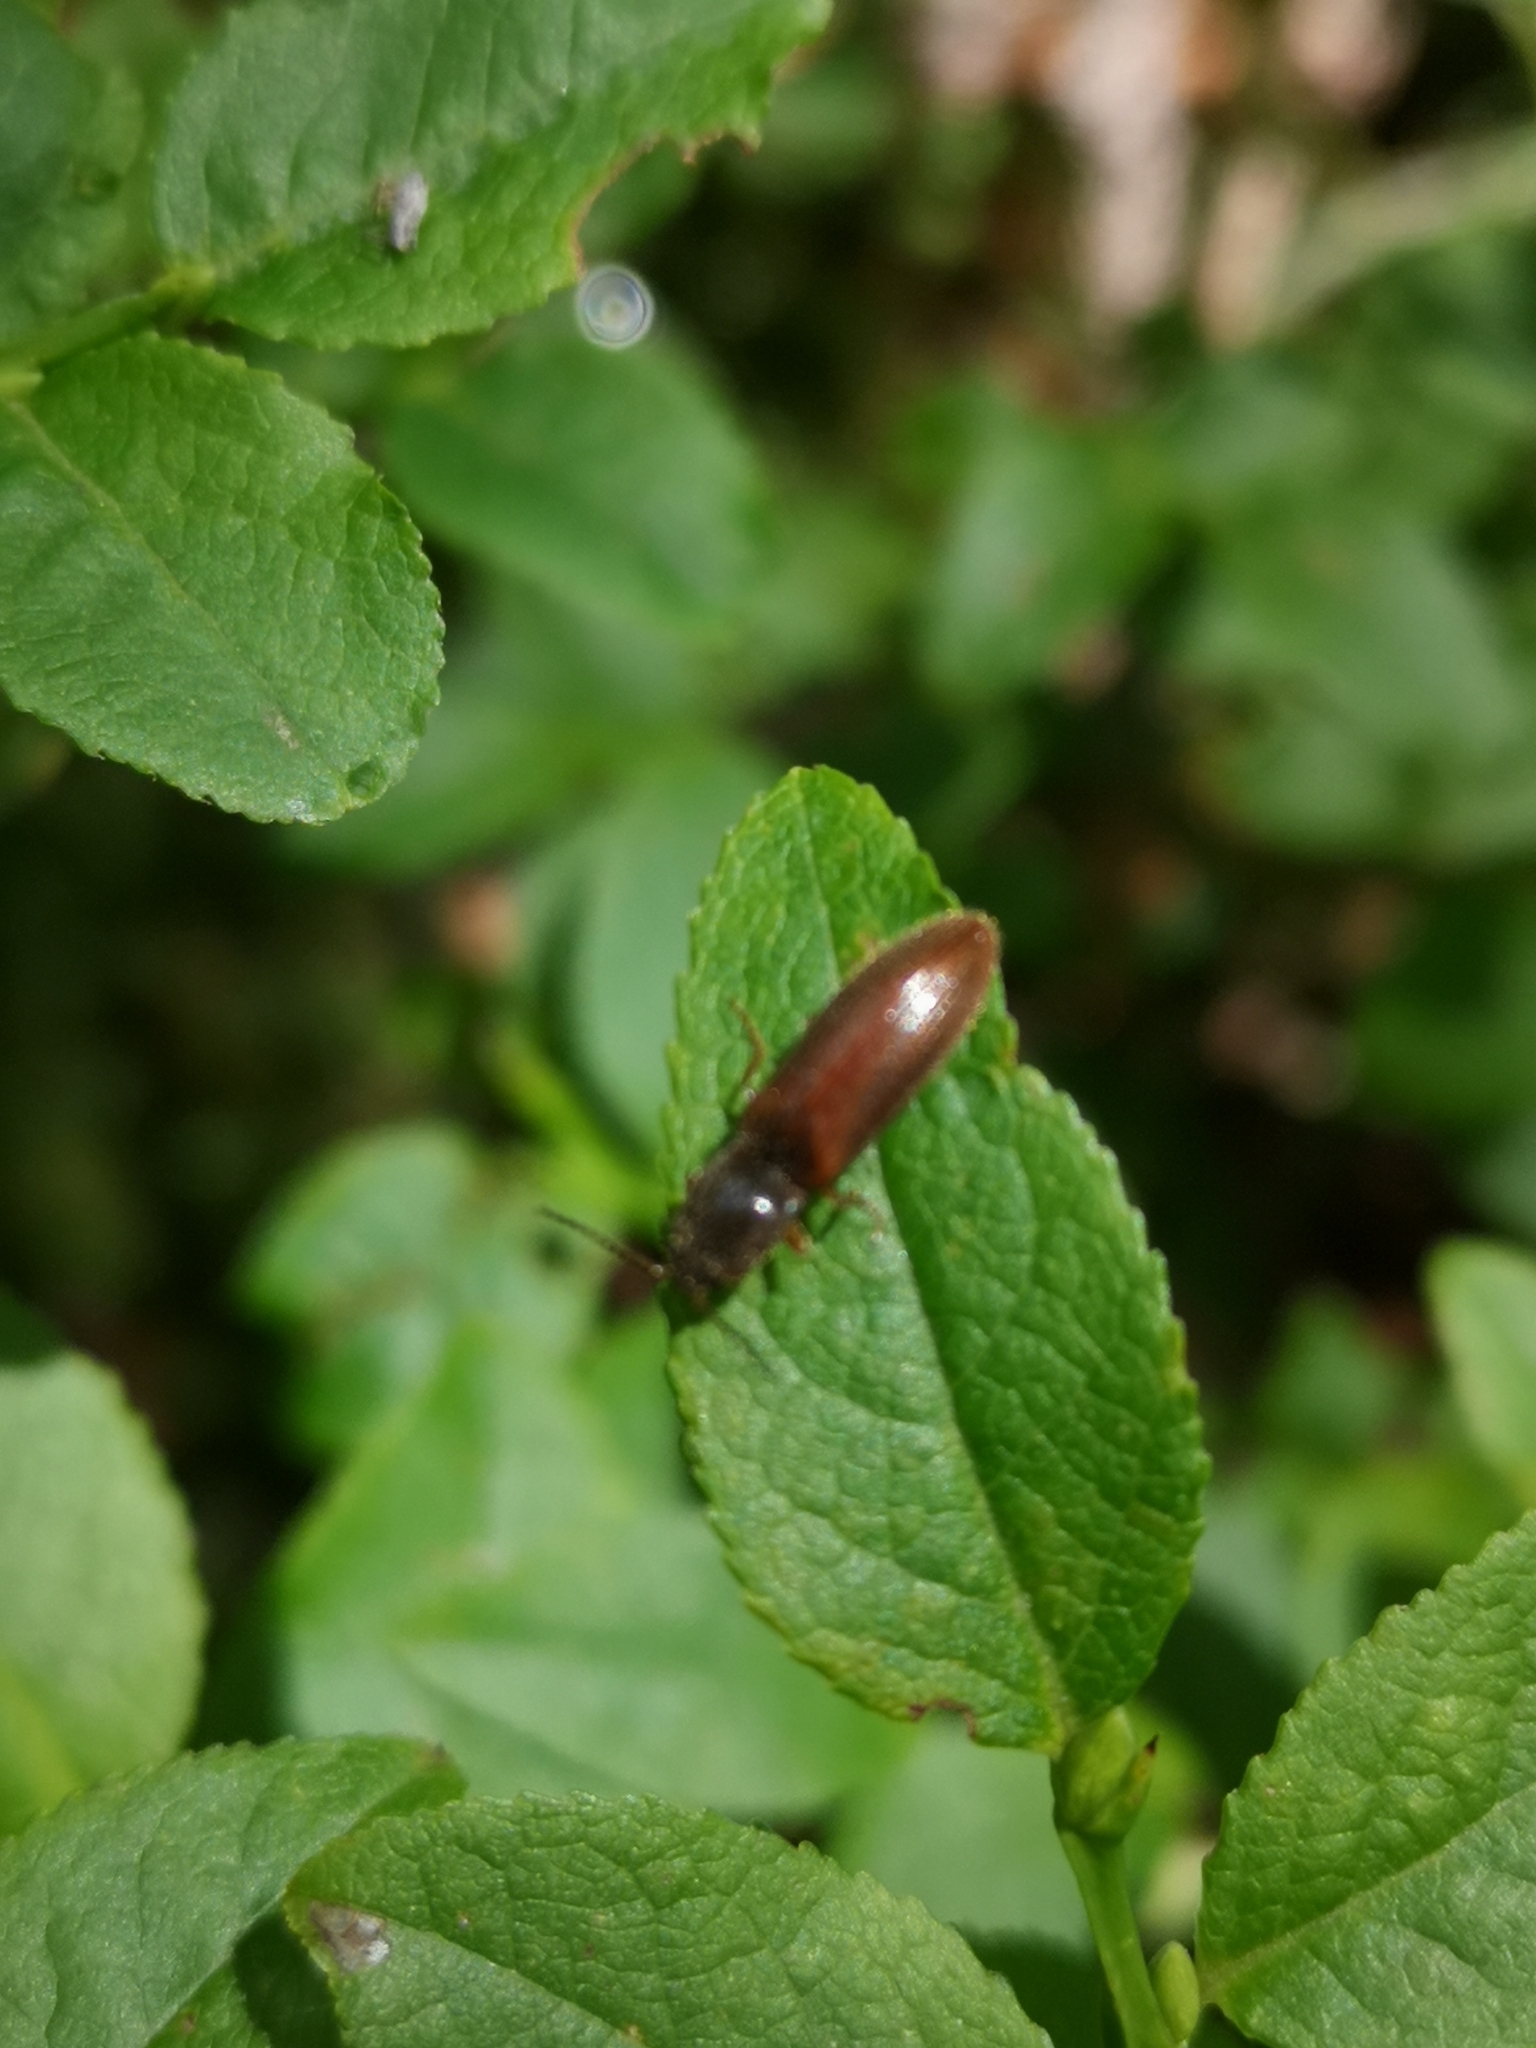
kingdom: Animalia
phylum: Arthropoda
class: Insecta
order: Coleoptera
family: Elateridae
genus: Athous
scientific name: Athous subfuscus
